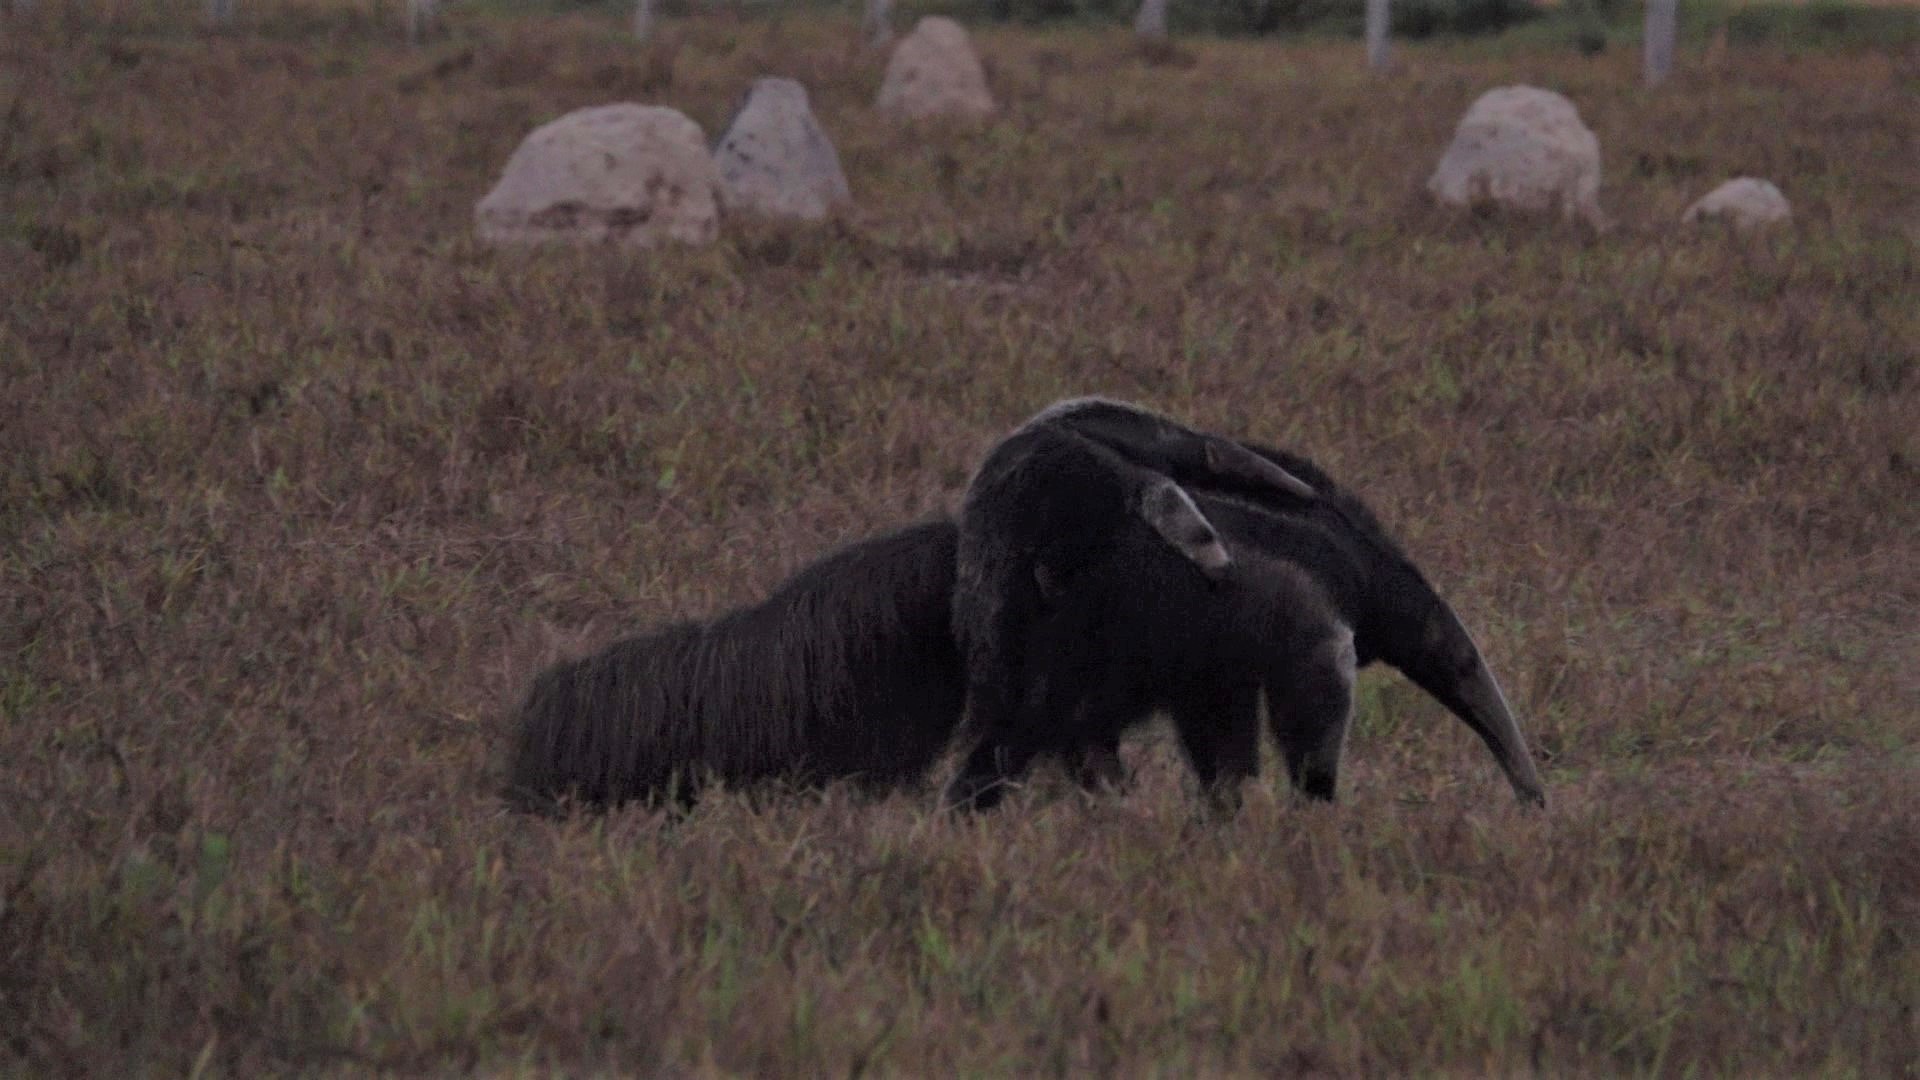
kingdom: Animalia
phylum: Chordata
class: Mammalia
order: Pilosa
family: Myrmecophagidae
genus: Myrmecophaga
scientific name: Myrmecophaga tridactyla
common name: Giant anteater
